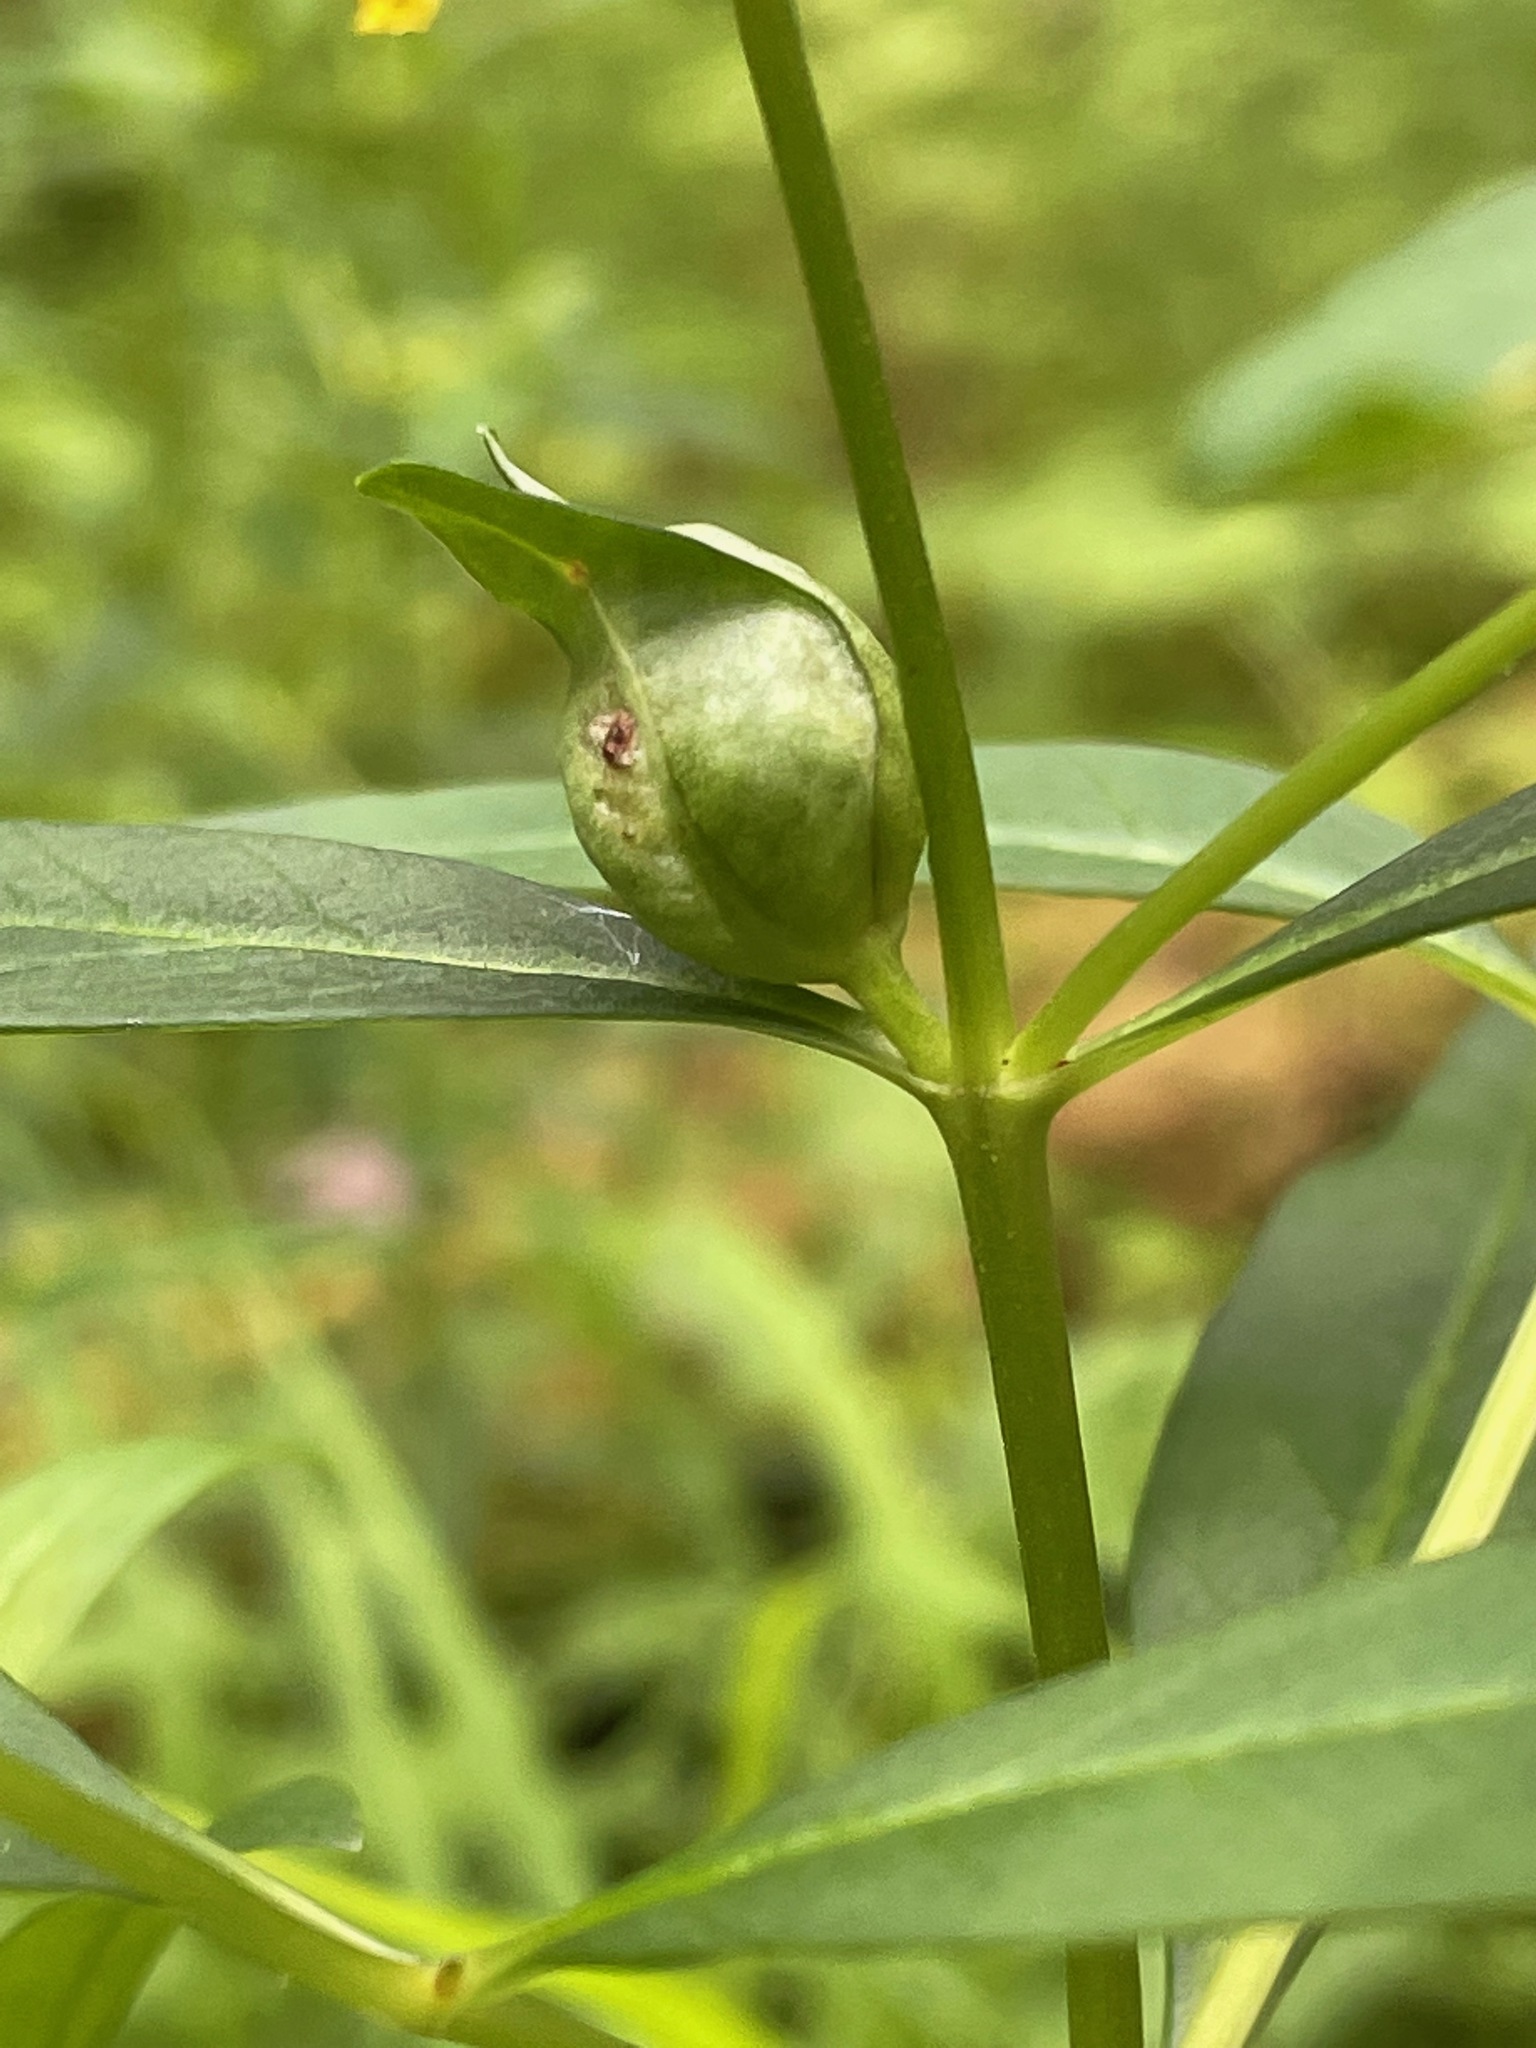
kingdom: Plantae
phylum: Tracheophyta
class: Magnoliopsida
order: Ericales
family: Primulaceae
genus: Lysimachia
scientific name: Lysimachia terrestris
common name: Lake loosestrife
